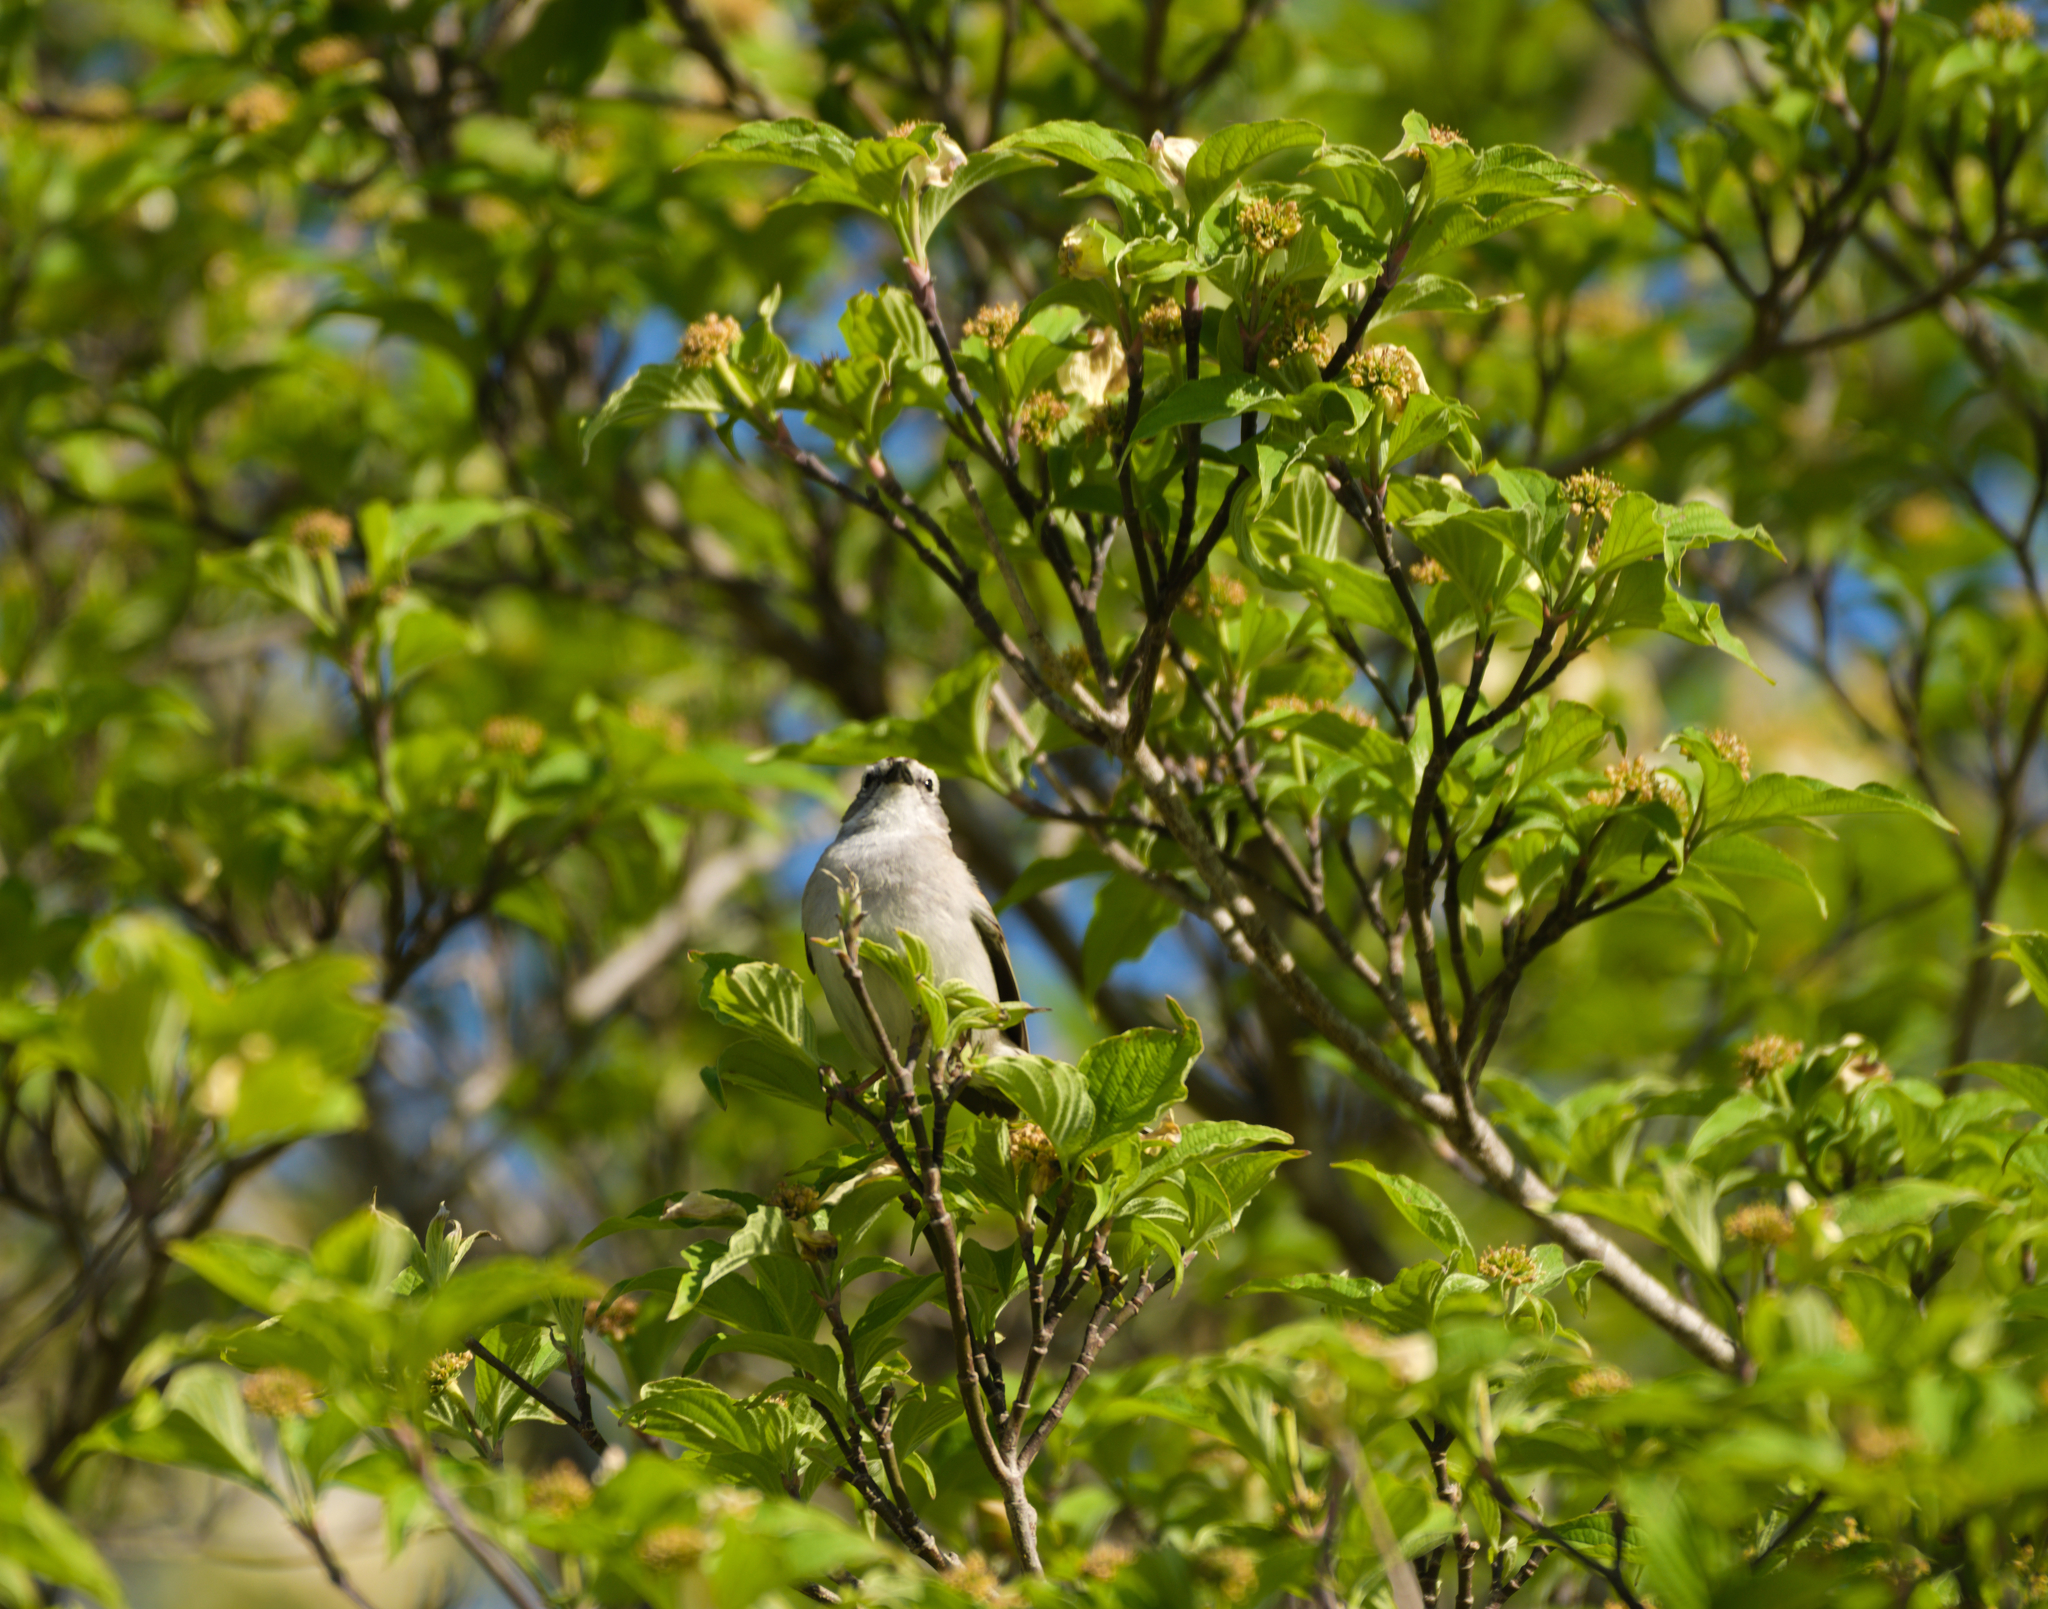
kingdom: Animalia
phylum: Chordata
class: Aves
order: Passeriformes
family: Passerellidae
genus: Spizella
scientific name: Spizella passerina
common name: Chipping sparrow
